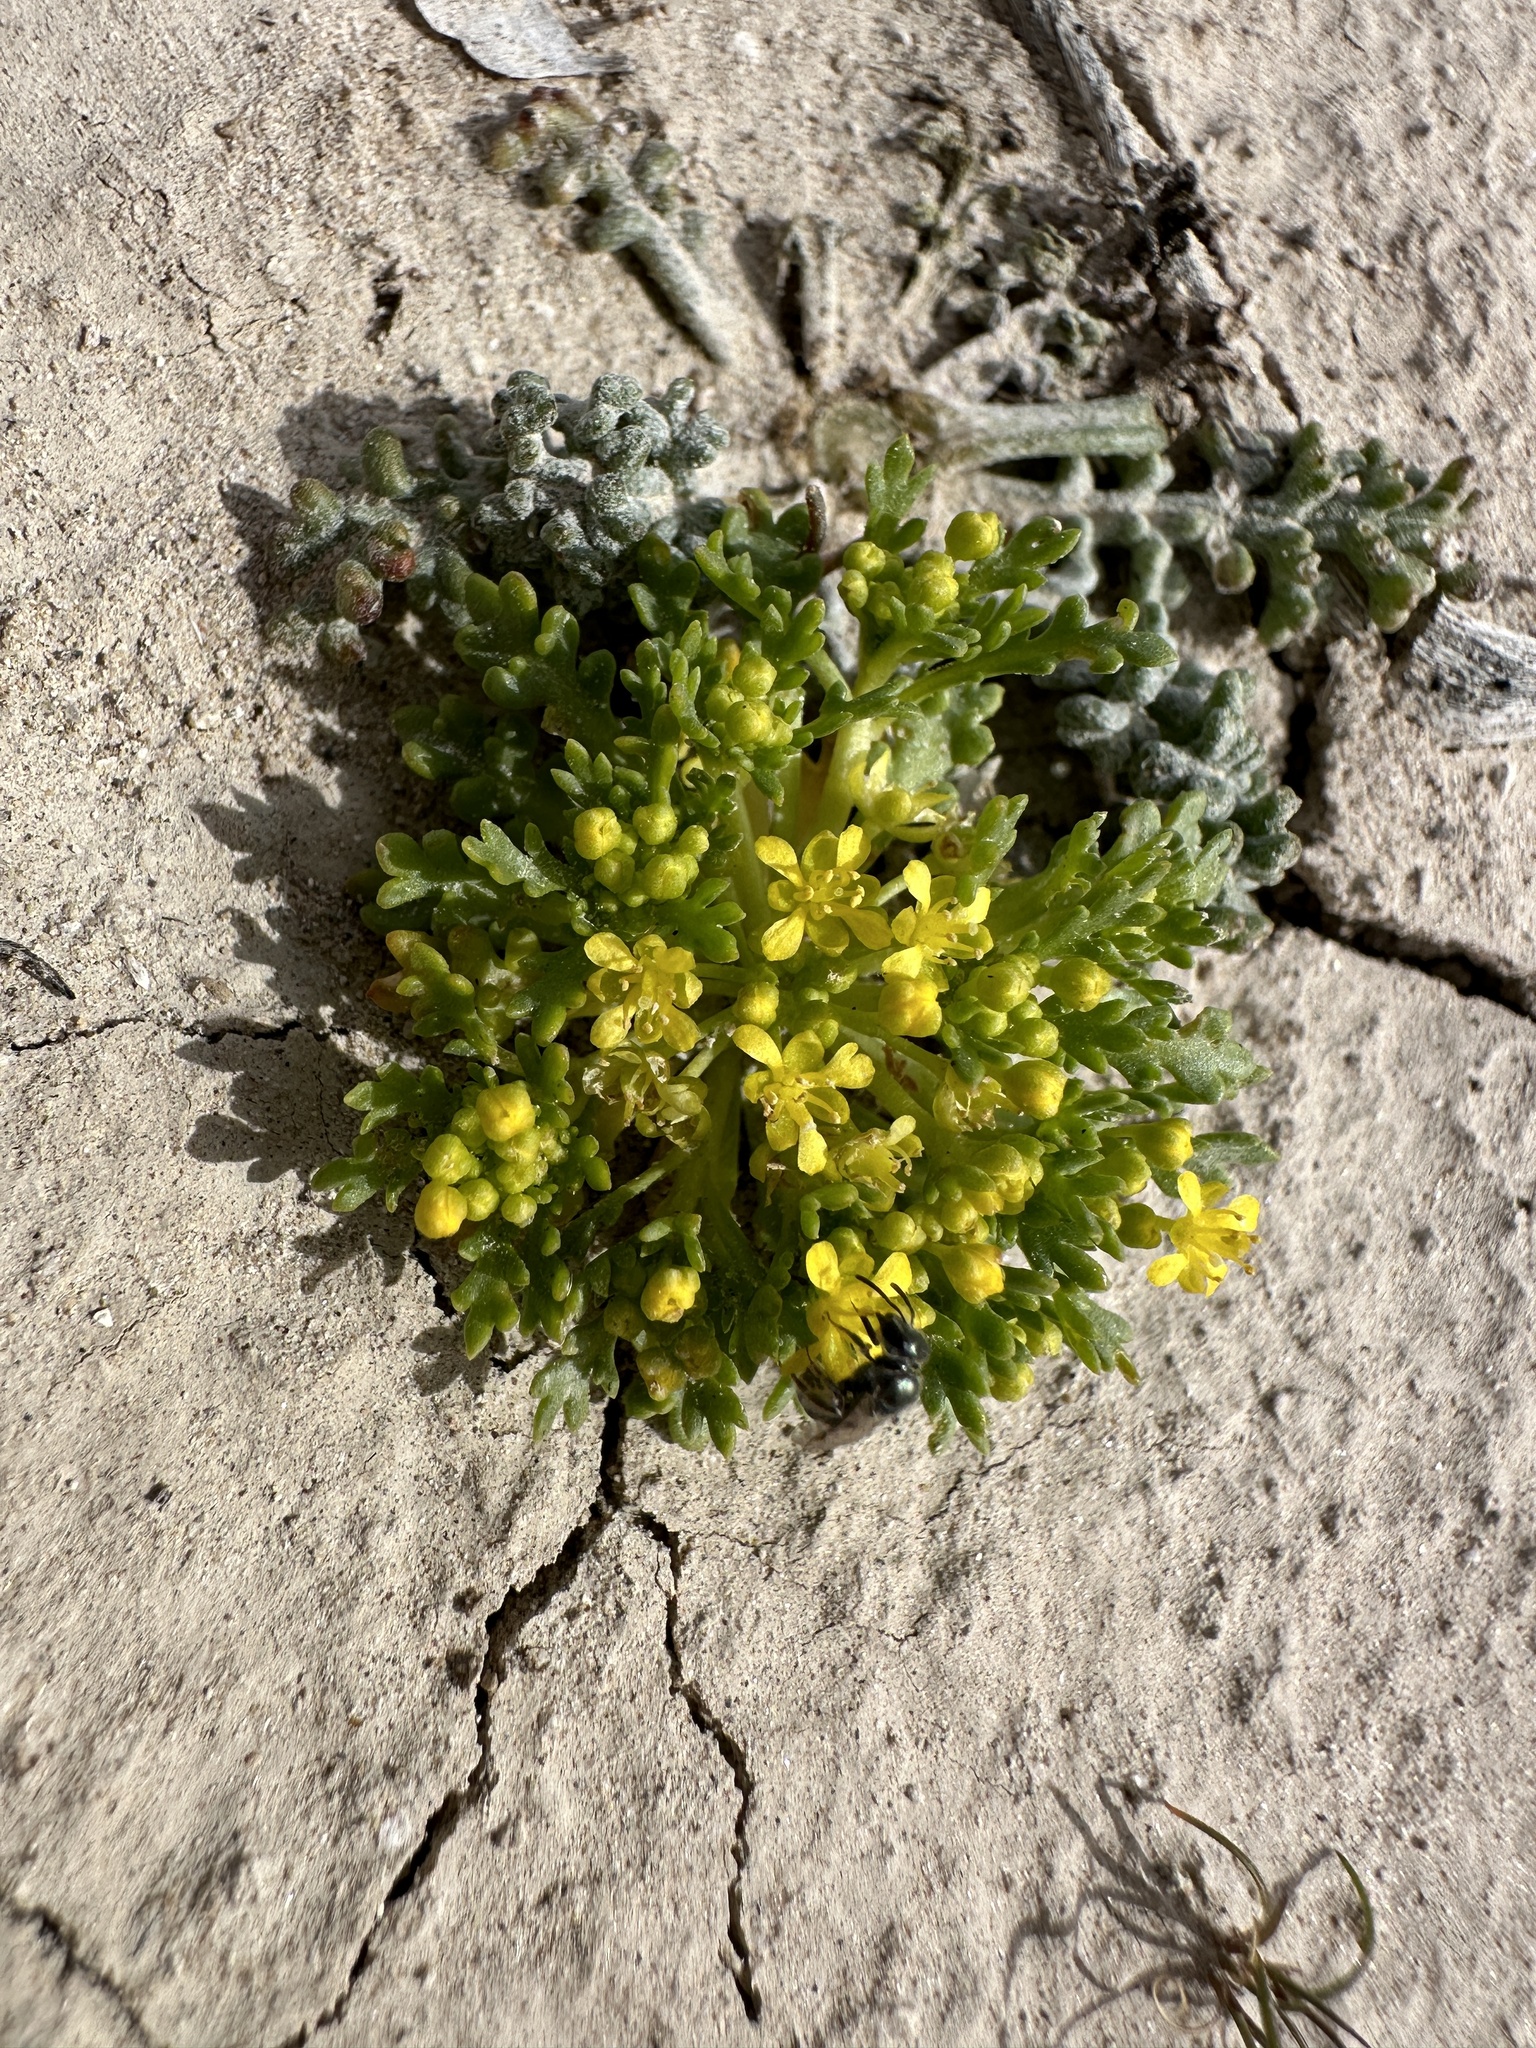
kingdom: Plantae
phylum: Tracheophyta
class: Magnoliopsida
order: Brassicales
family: Brassicaceae
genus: Lepidium
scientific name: Lepidium flavum
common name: Yellow pepperwort
